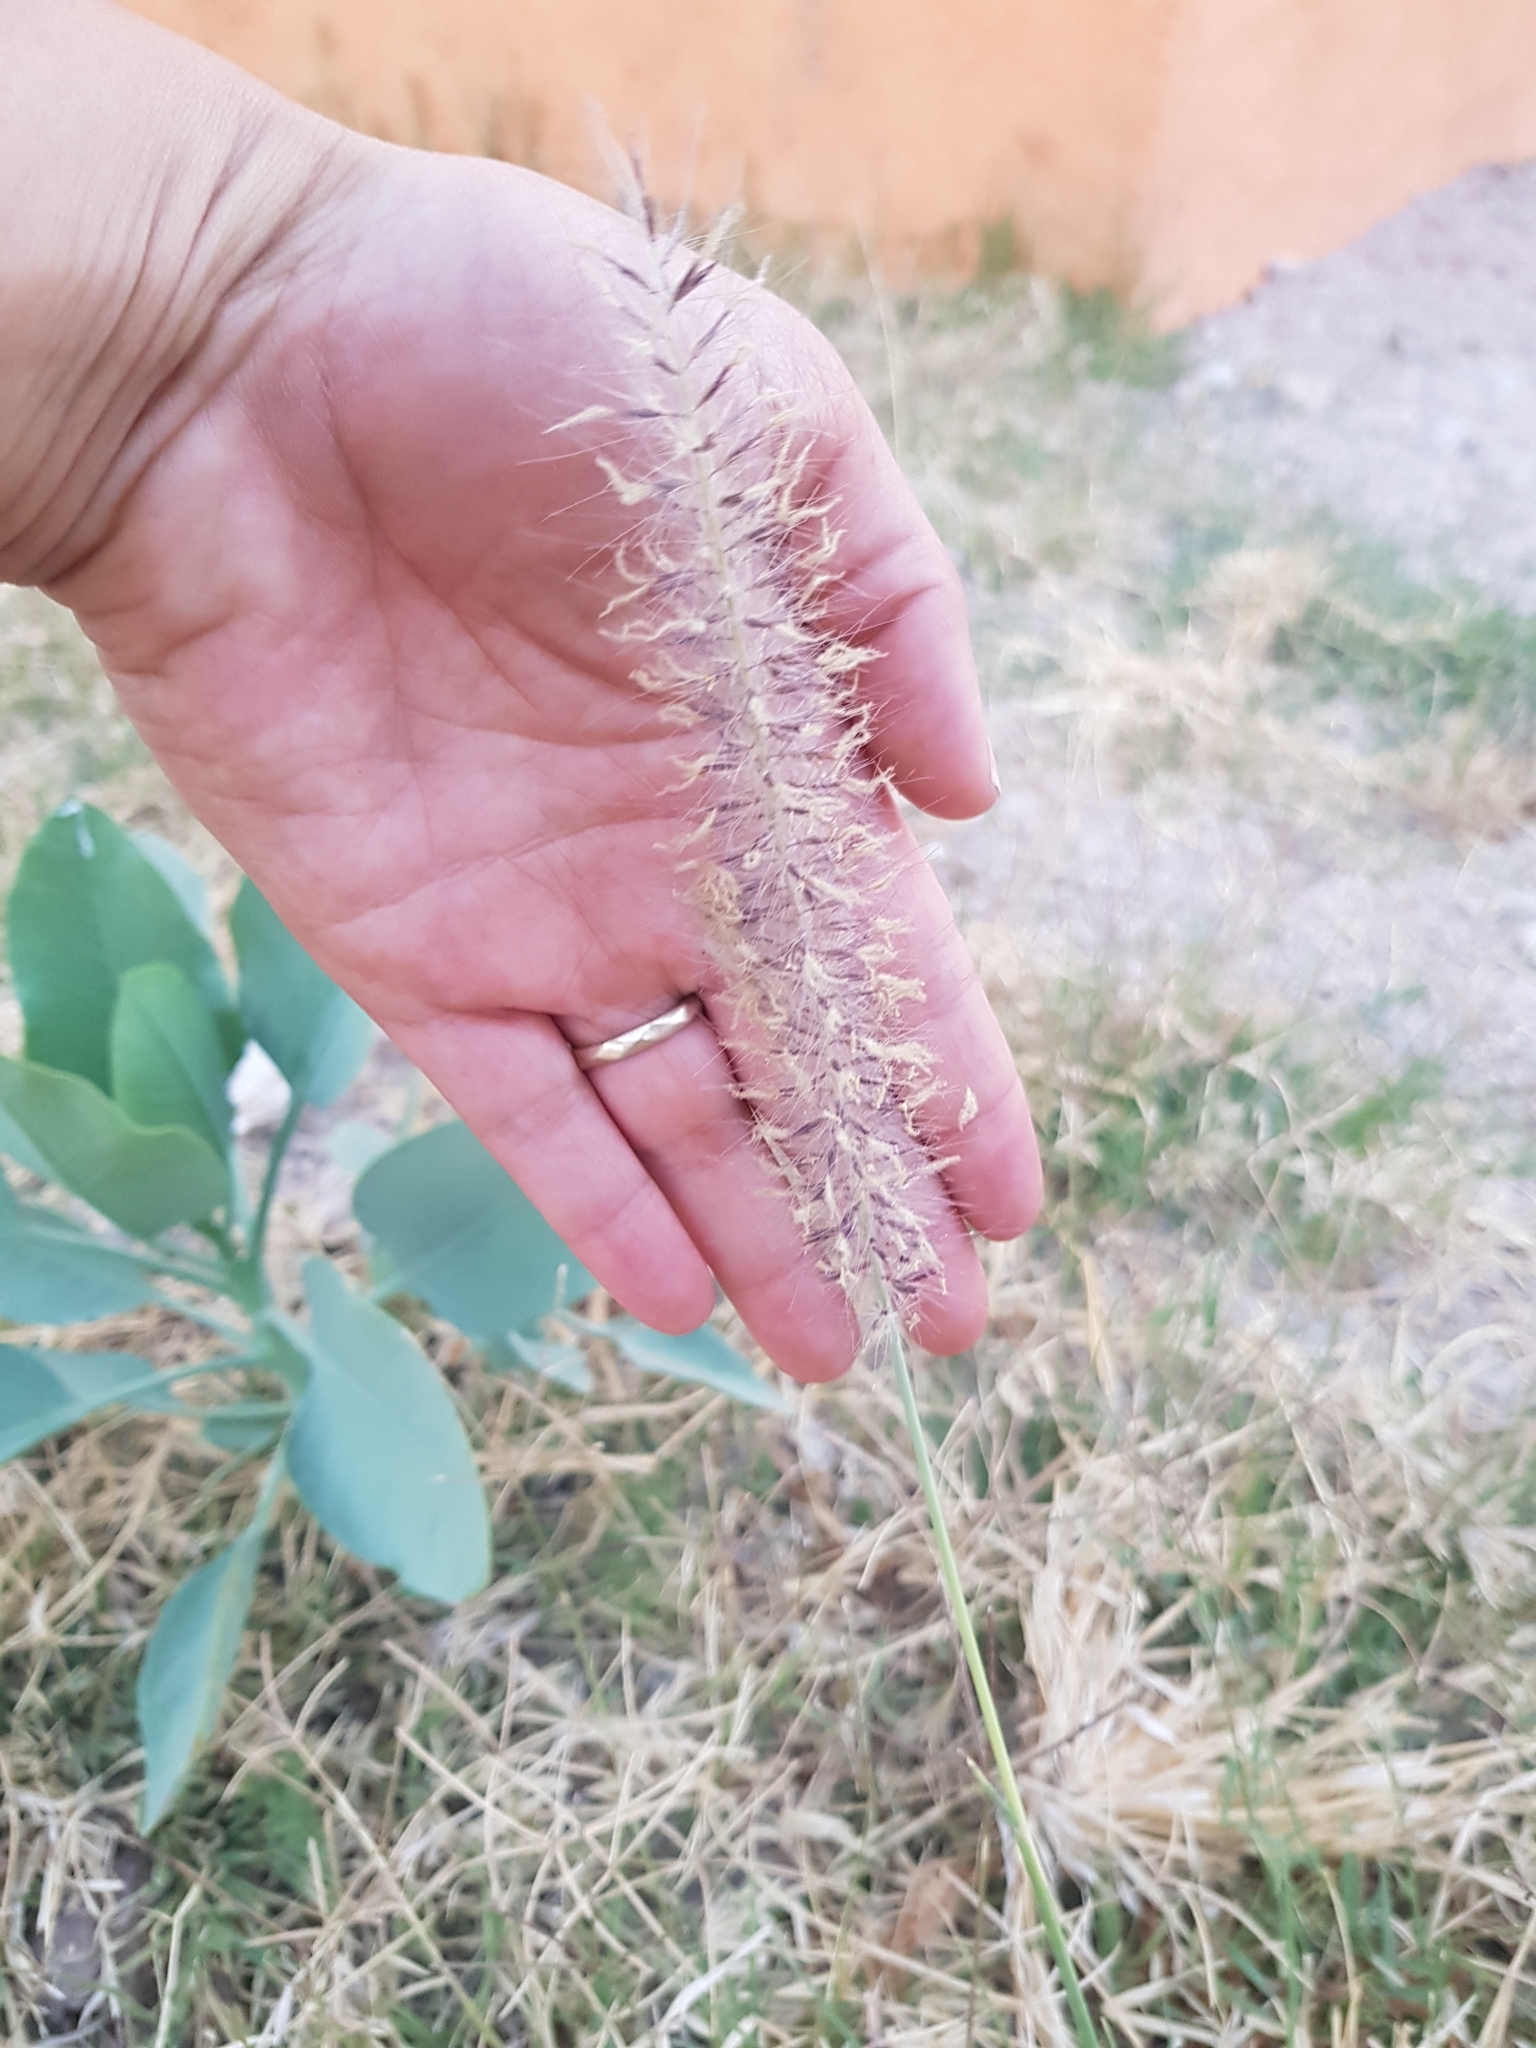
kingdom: Plantae
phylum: Tracheophyta
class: Liliopsida
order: Poales
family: Poaceae
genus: Cenchrus
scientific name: Cenchrus setaceus
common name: Crimson fountaingrass
